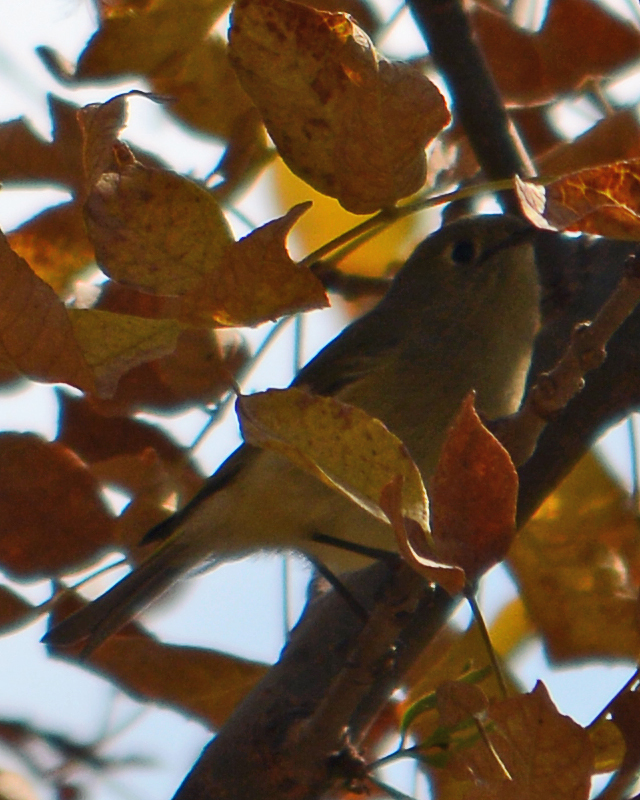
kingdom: Animalia
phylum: Chordata
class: Aves
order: Passeriformes
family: Regulidae
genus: Regulus
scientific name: Regulus calendula
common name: Ruby-crowned kinglet
